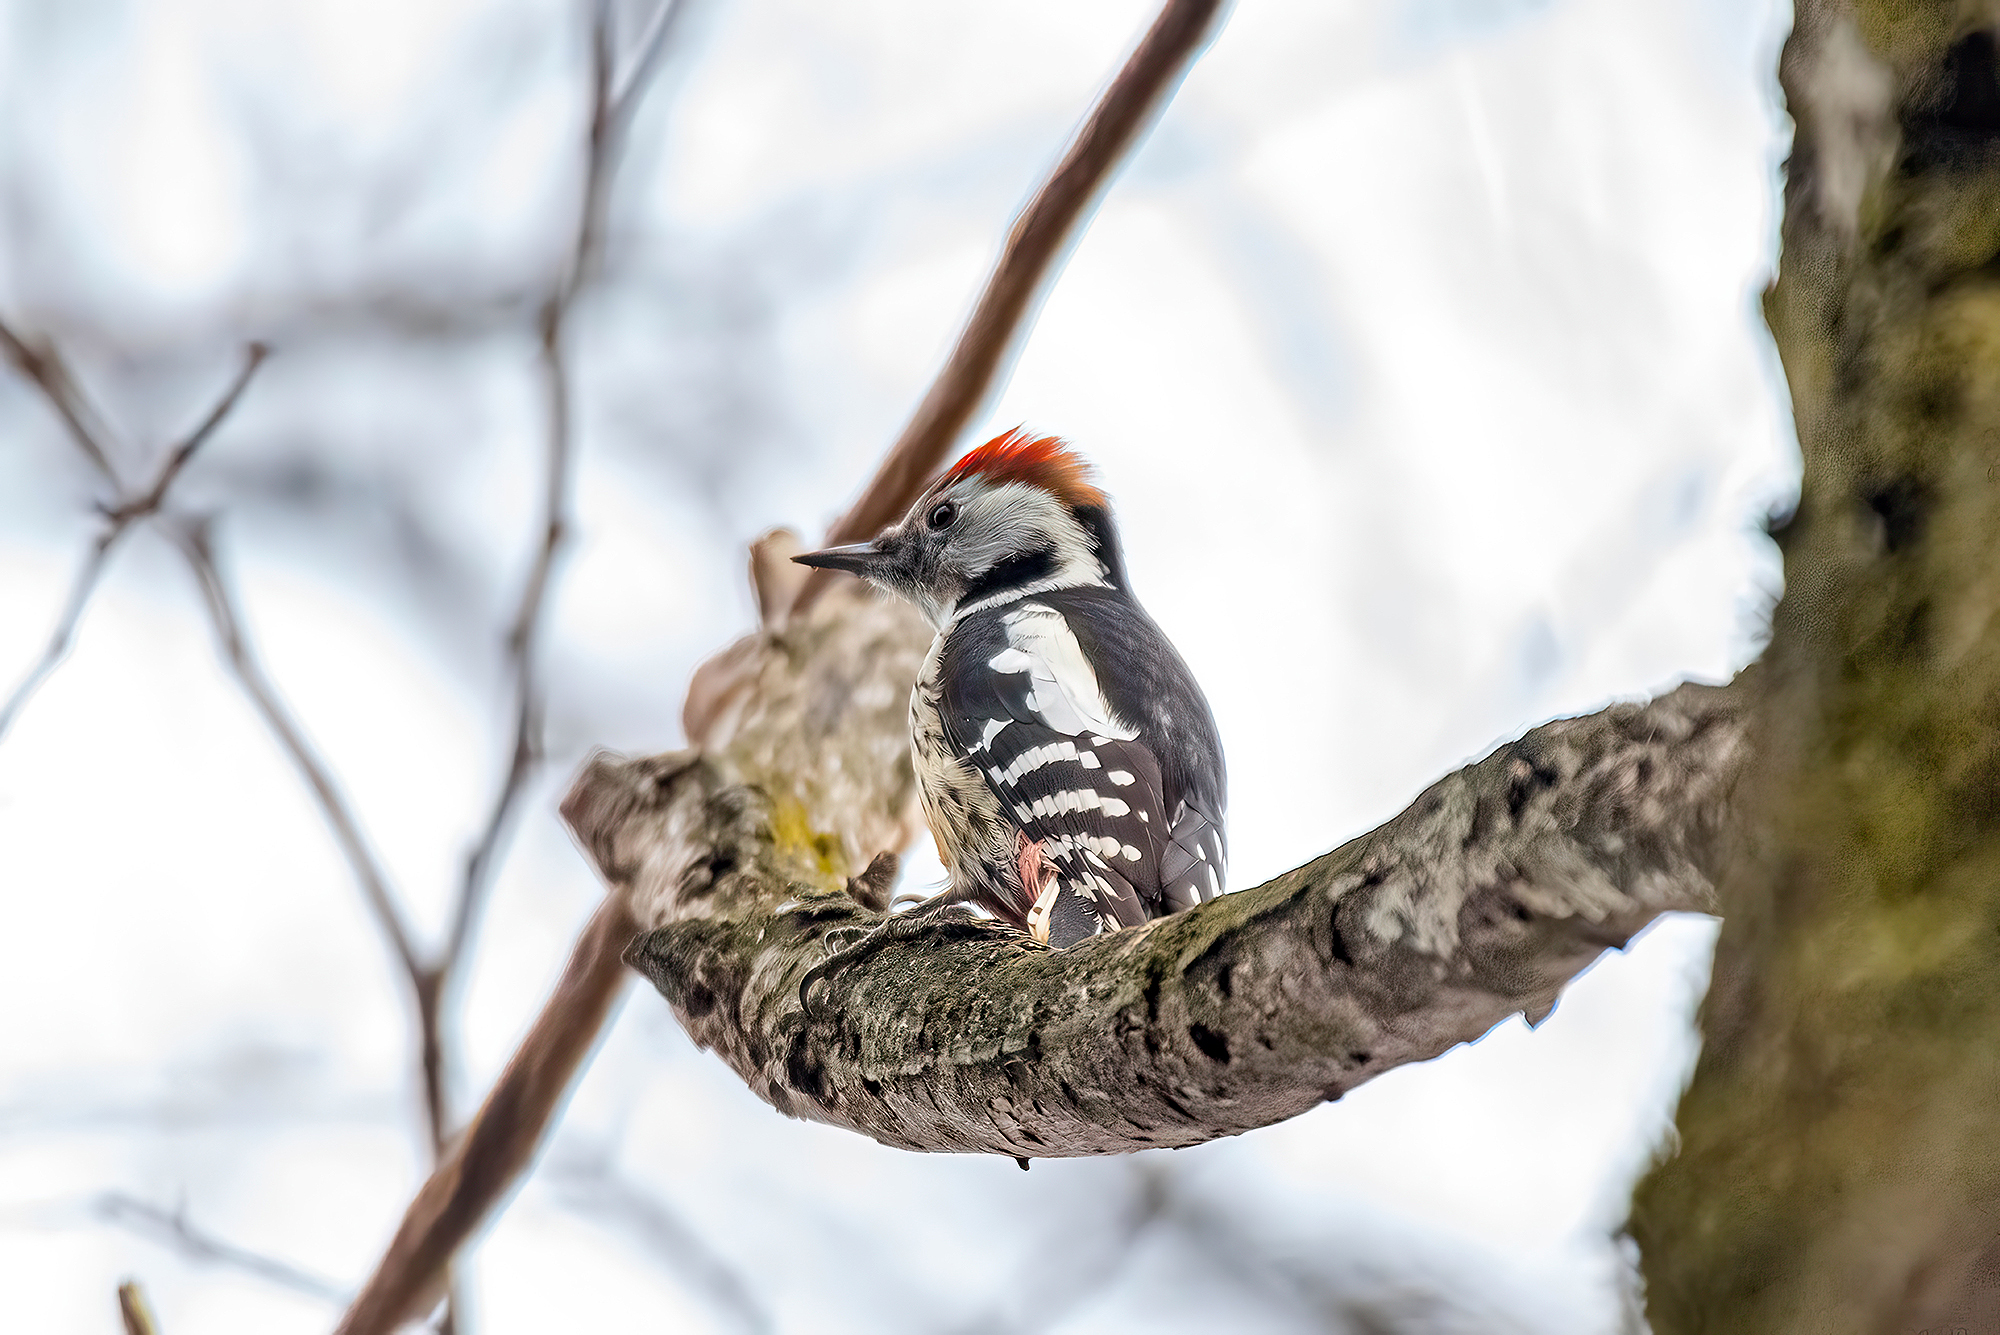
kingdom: Animalia
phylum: Chordata
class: Aves
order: Piciformes
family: Picidae
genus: Dendrocoptes
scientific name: Dendrocoptes medius
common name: Middle spotted woodpecker
